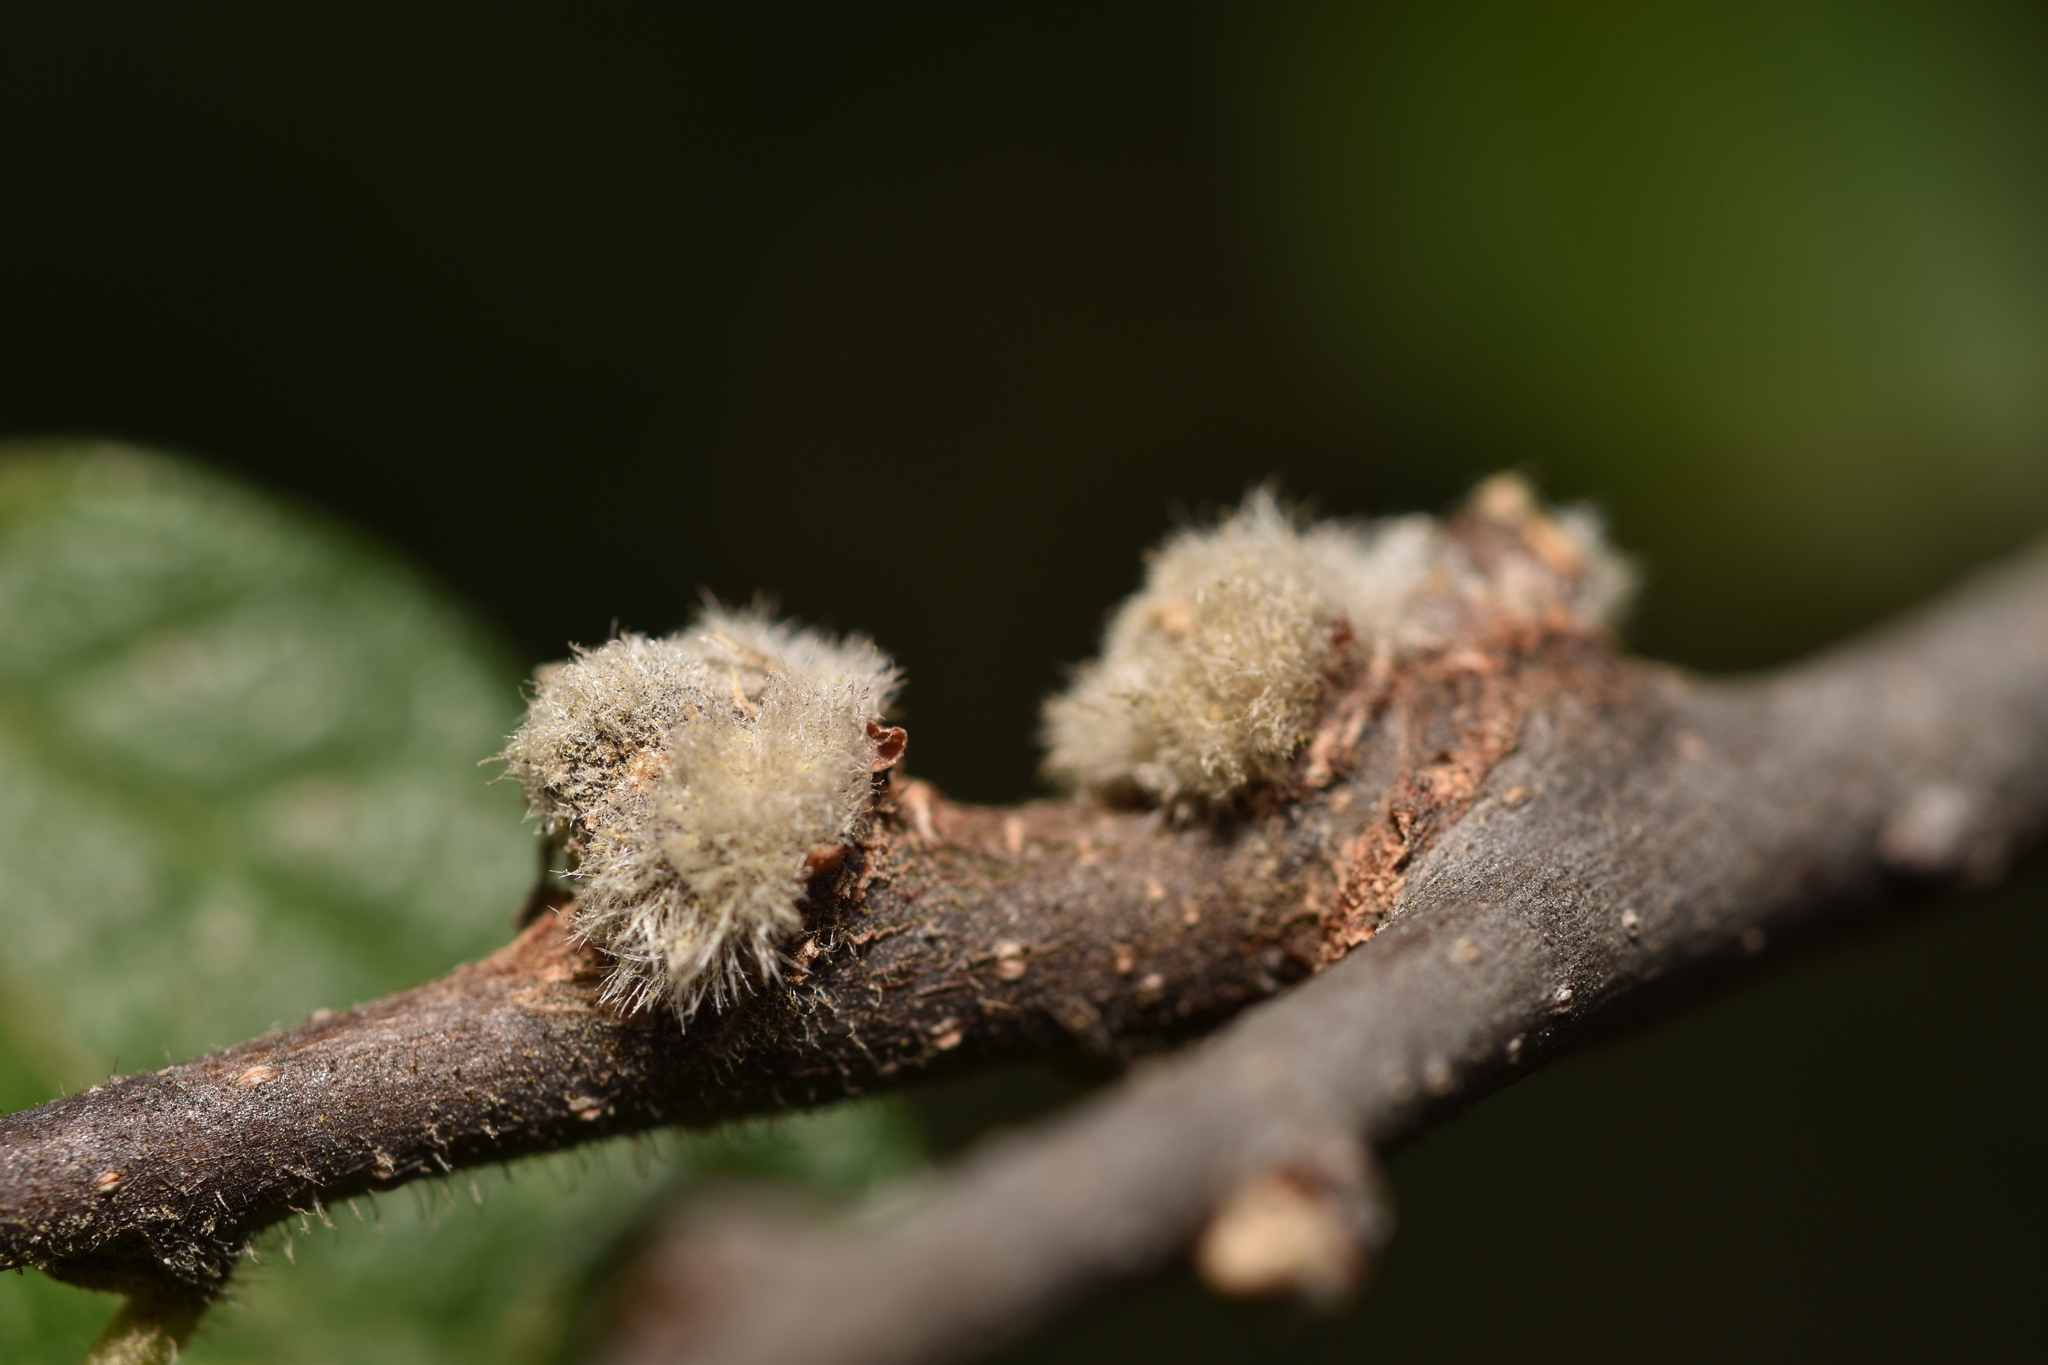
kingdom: Animalia
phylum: Arthropoda
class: Insecta
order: Hemiptera
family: Aphalaridae
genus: Pachypsylla
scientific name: Pachypsylla pallida
